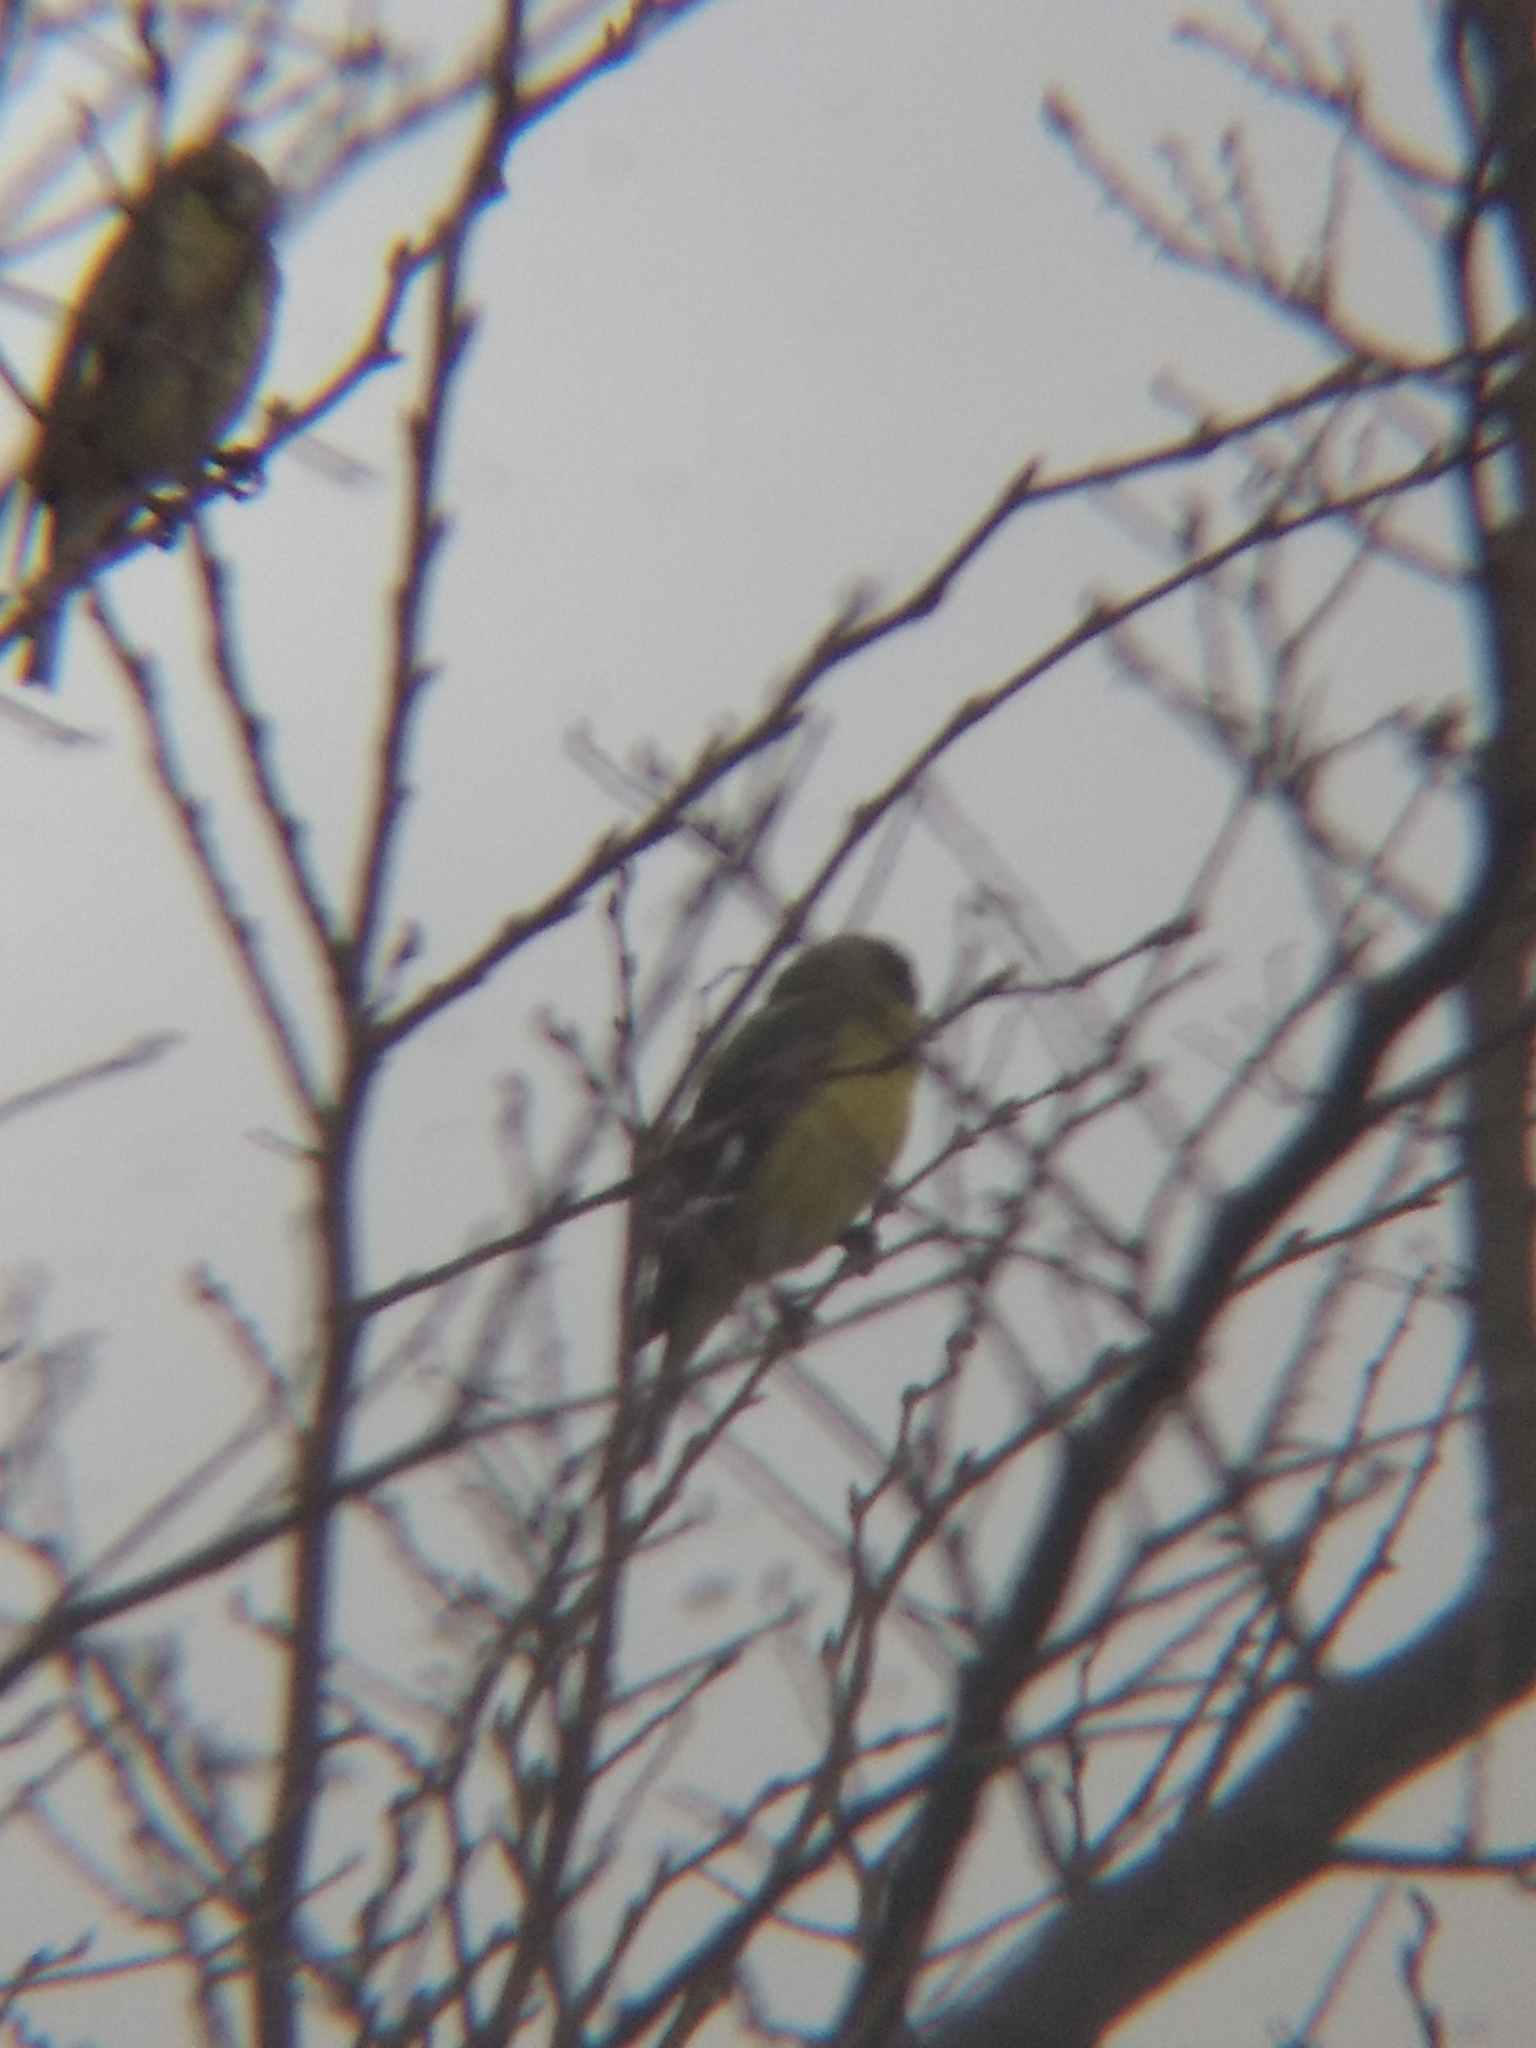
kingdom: Animalia
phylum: Chordata
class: Aves
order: Passeriformes
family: Fringillidae
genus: Spinus
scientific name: Spinus psaltria
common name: Lesser goldfinch
